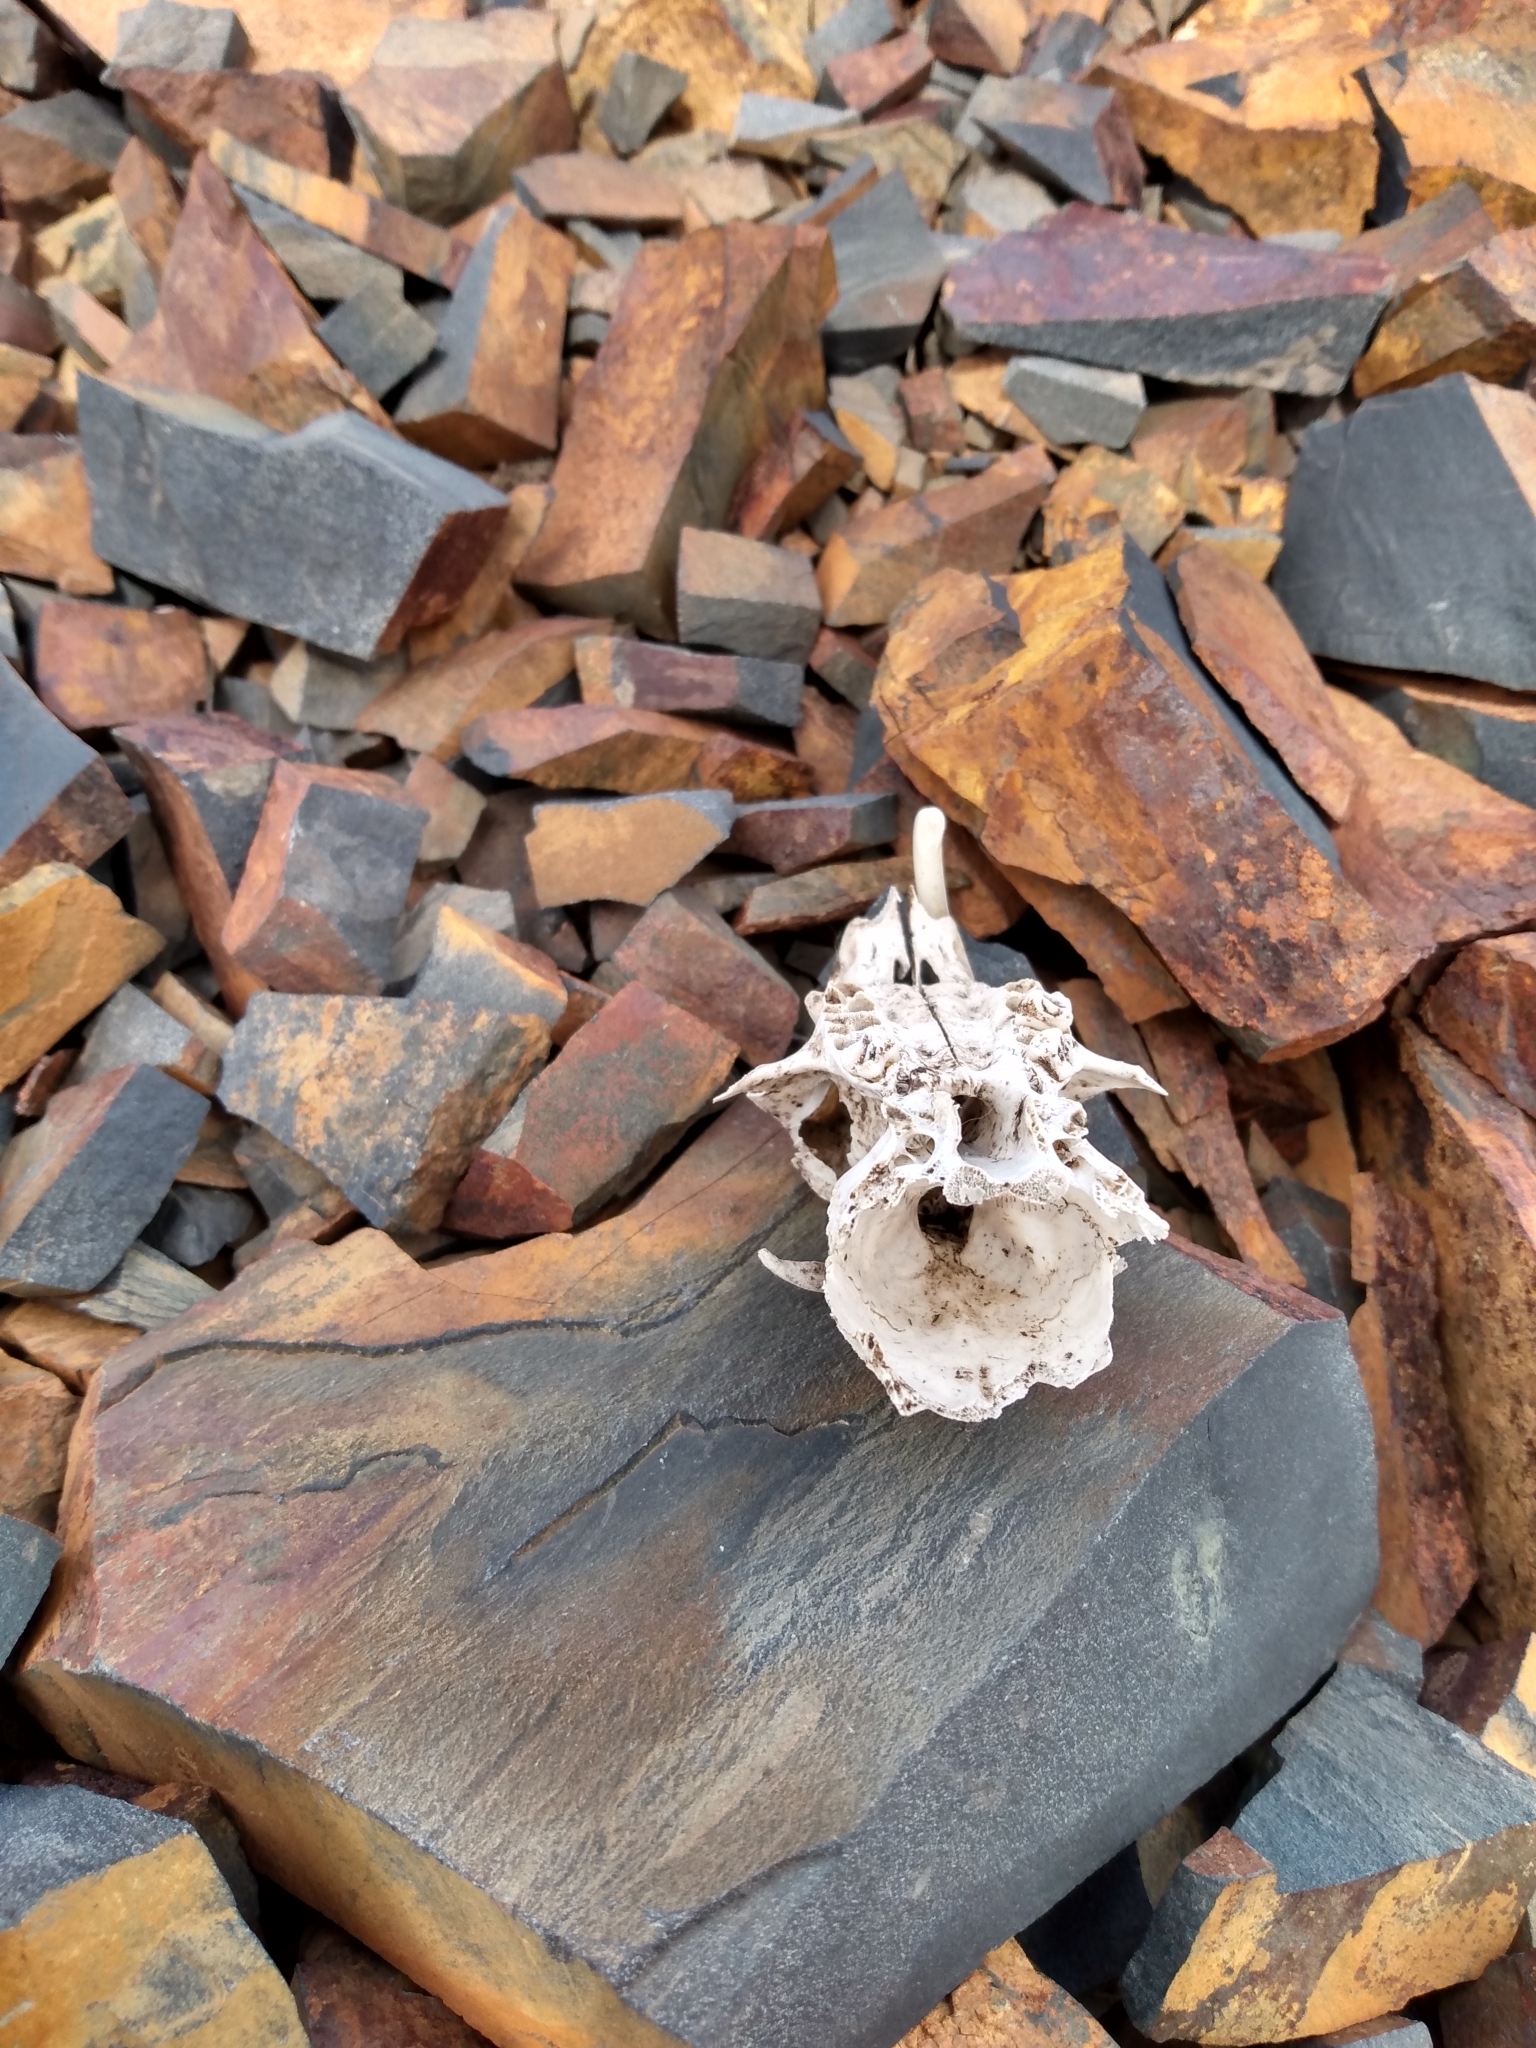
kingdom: Animalia
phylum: Chordata
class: Mammalia
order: Rodentia
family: Sciuridae
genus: Marmota
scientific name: Marmota flaviventris
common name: Yellow-bellied marmot
